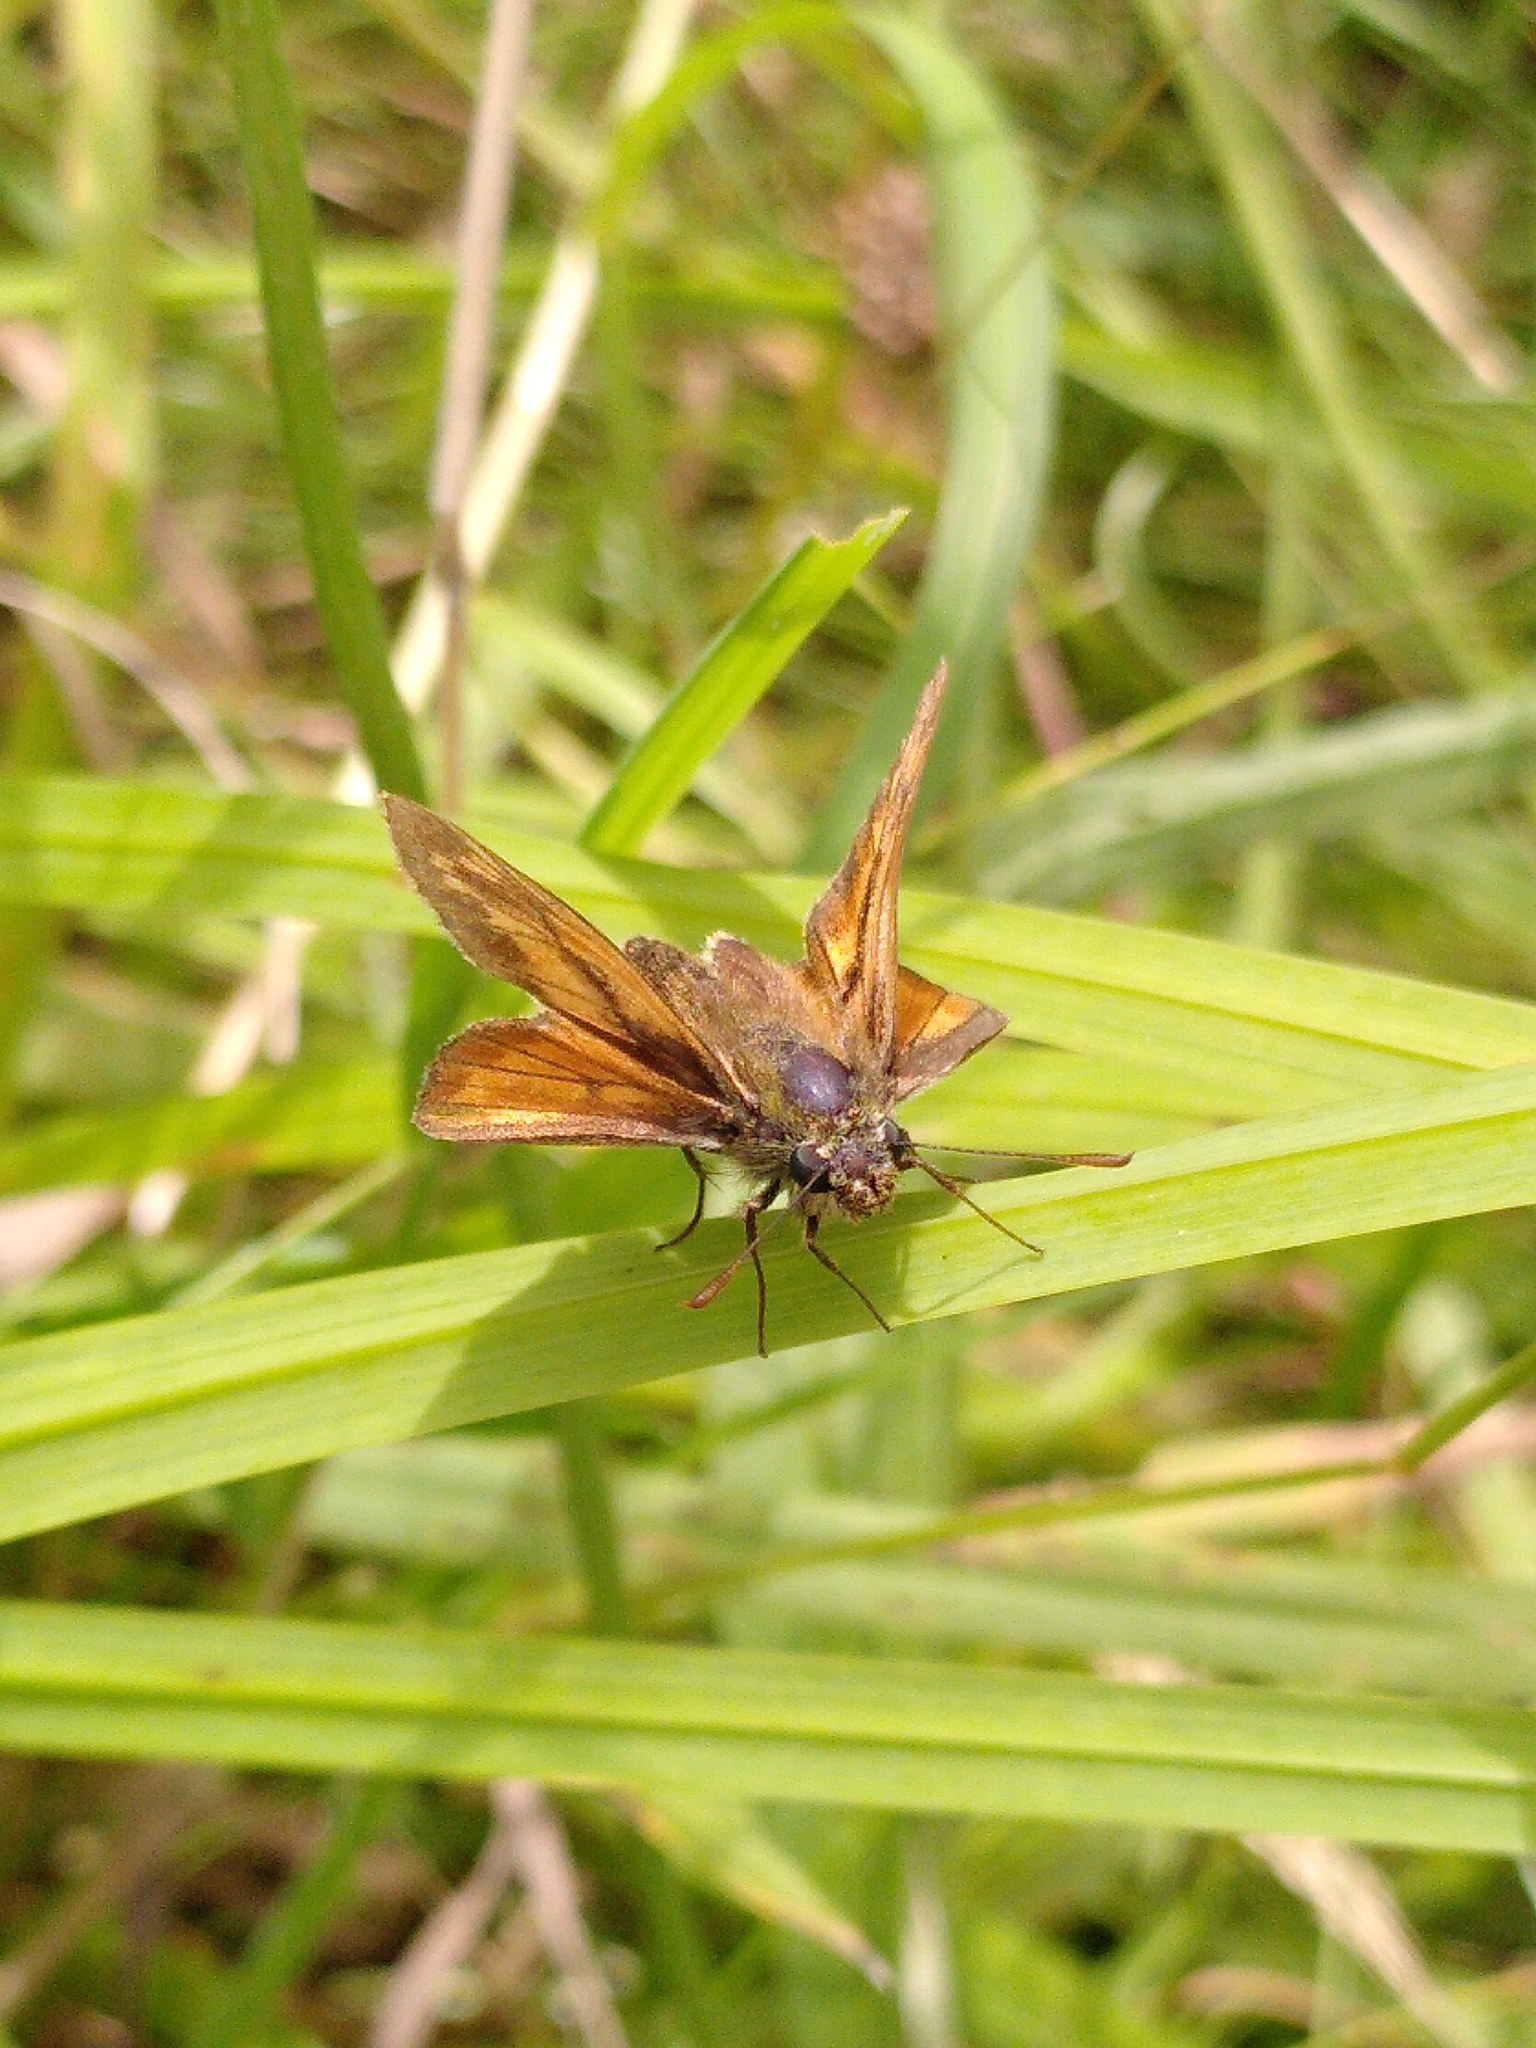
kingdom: Animalia
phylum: Arthropoda
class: Insecta
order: Lepidoptera
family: Hesperiidae
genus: Ochlodes
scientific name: Ochlodes venata
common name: Large skipper
